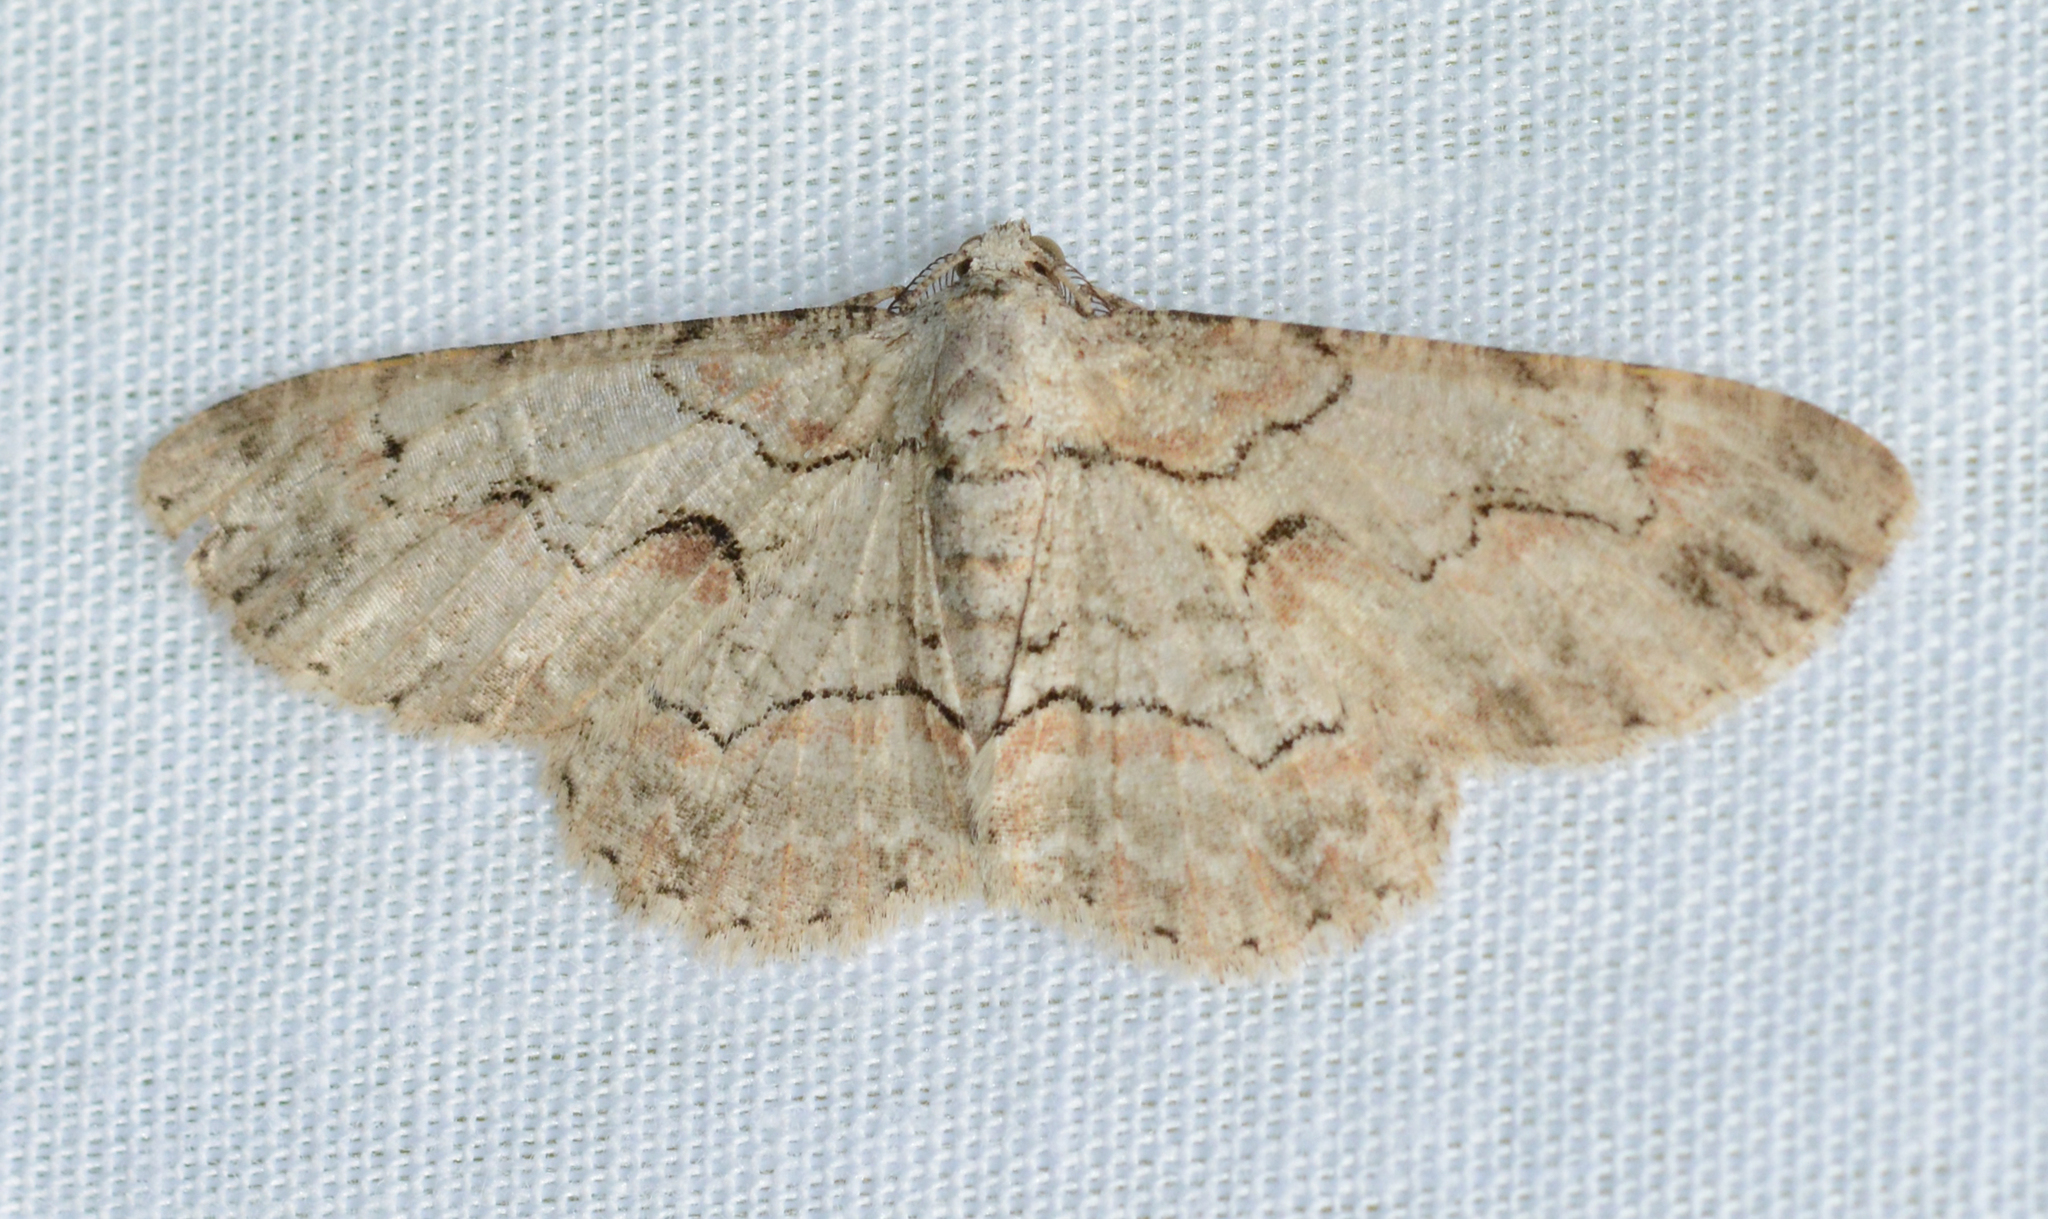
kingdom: Animalia
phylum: Arthropoda
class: Insecta
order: Lepidoptera
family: Geometridae
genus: Iridopsis
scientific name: Iridopsis defectaria
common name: Brown-shaded gray
